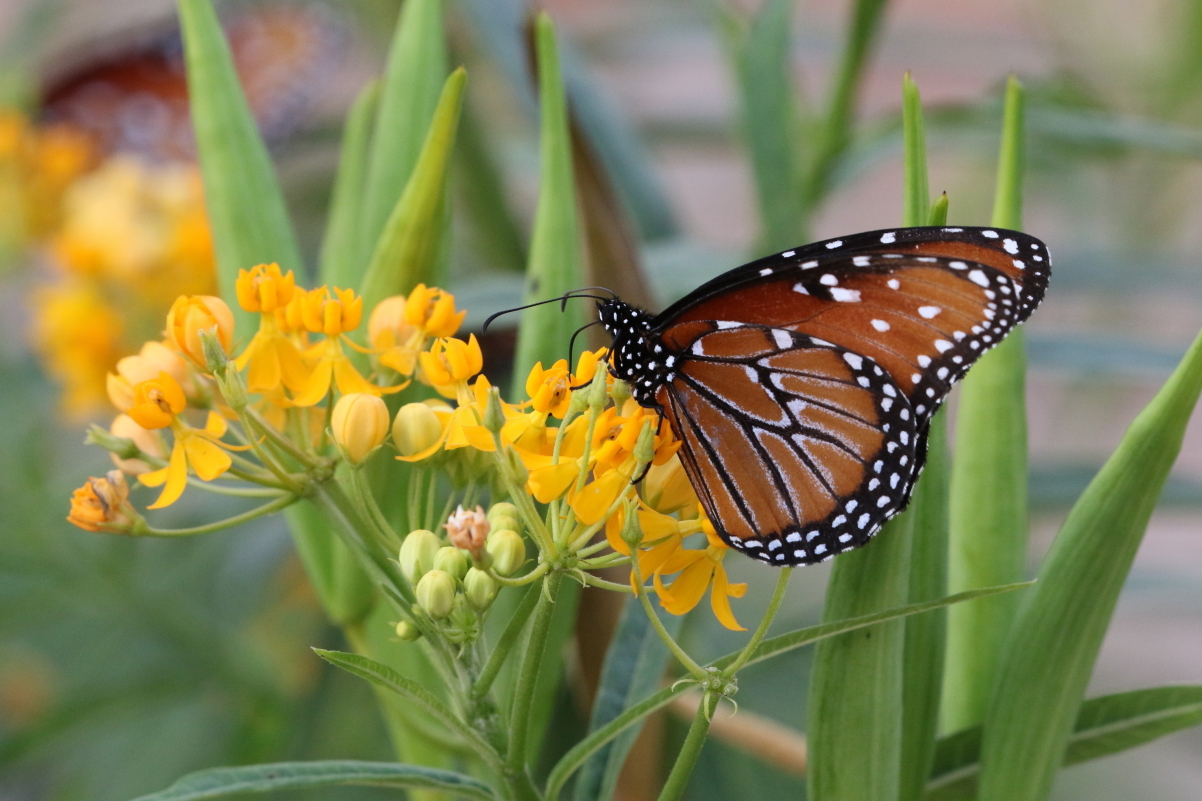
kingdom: Animalia
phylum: Arthropoda
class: Insecta
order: Lepidoptera
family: Nymphalidae
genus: Danaus
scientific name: Danaus gilippus
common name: Queen
